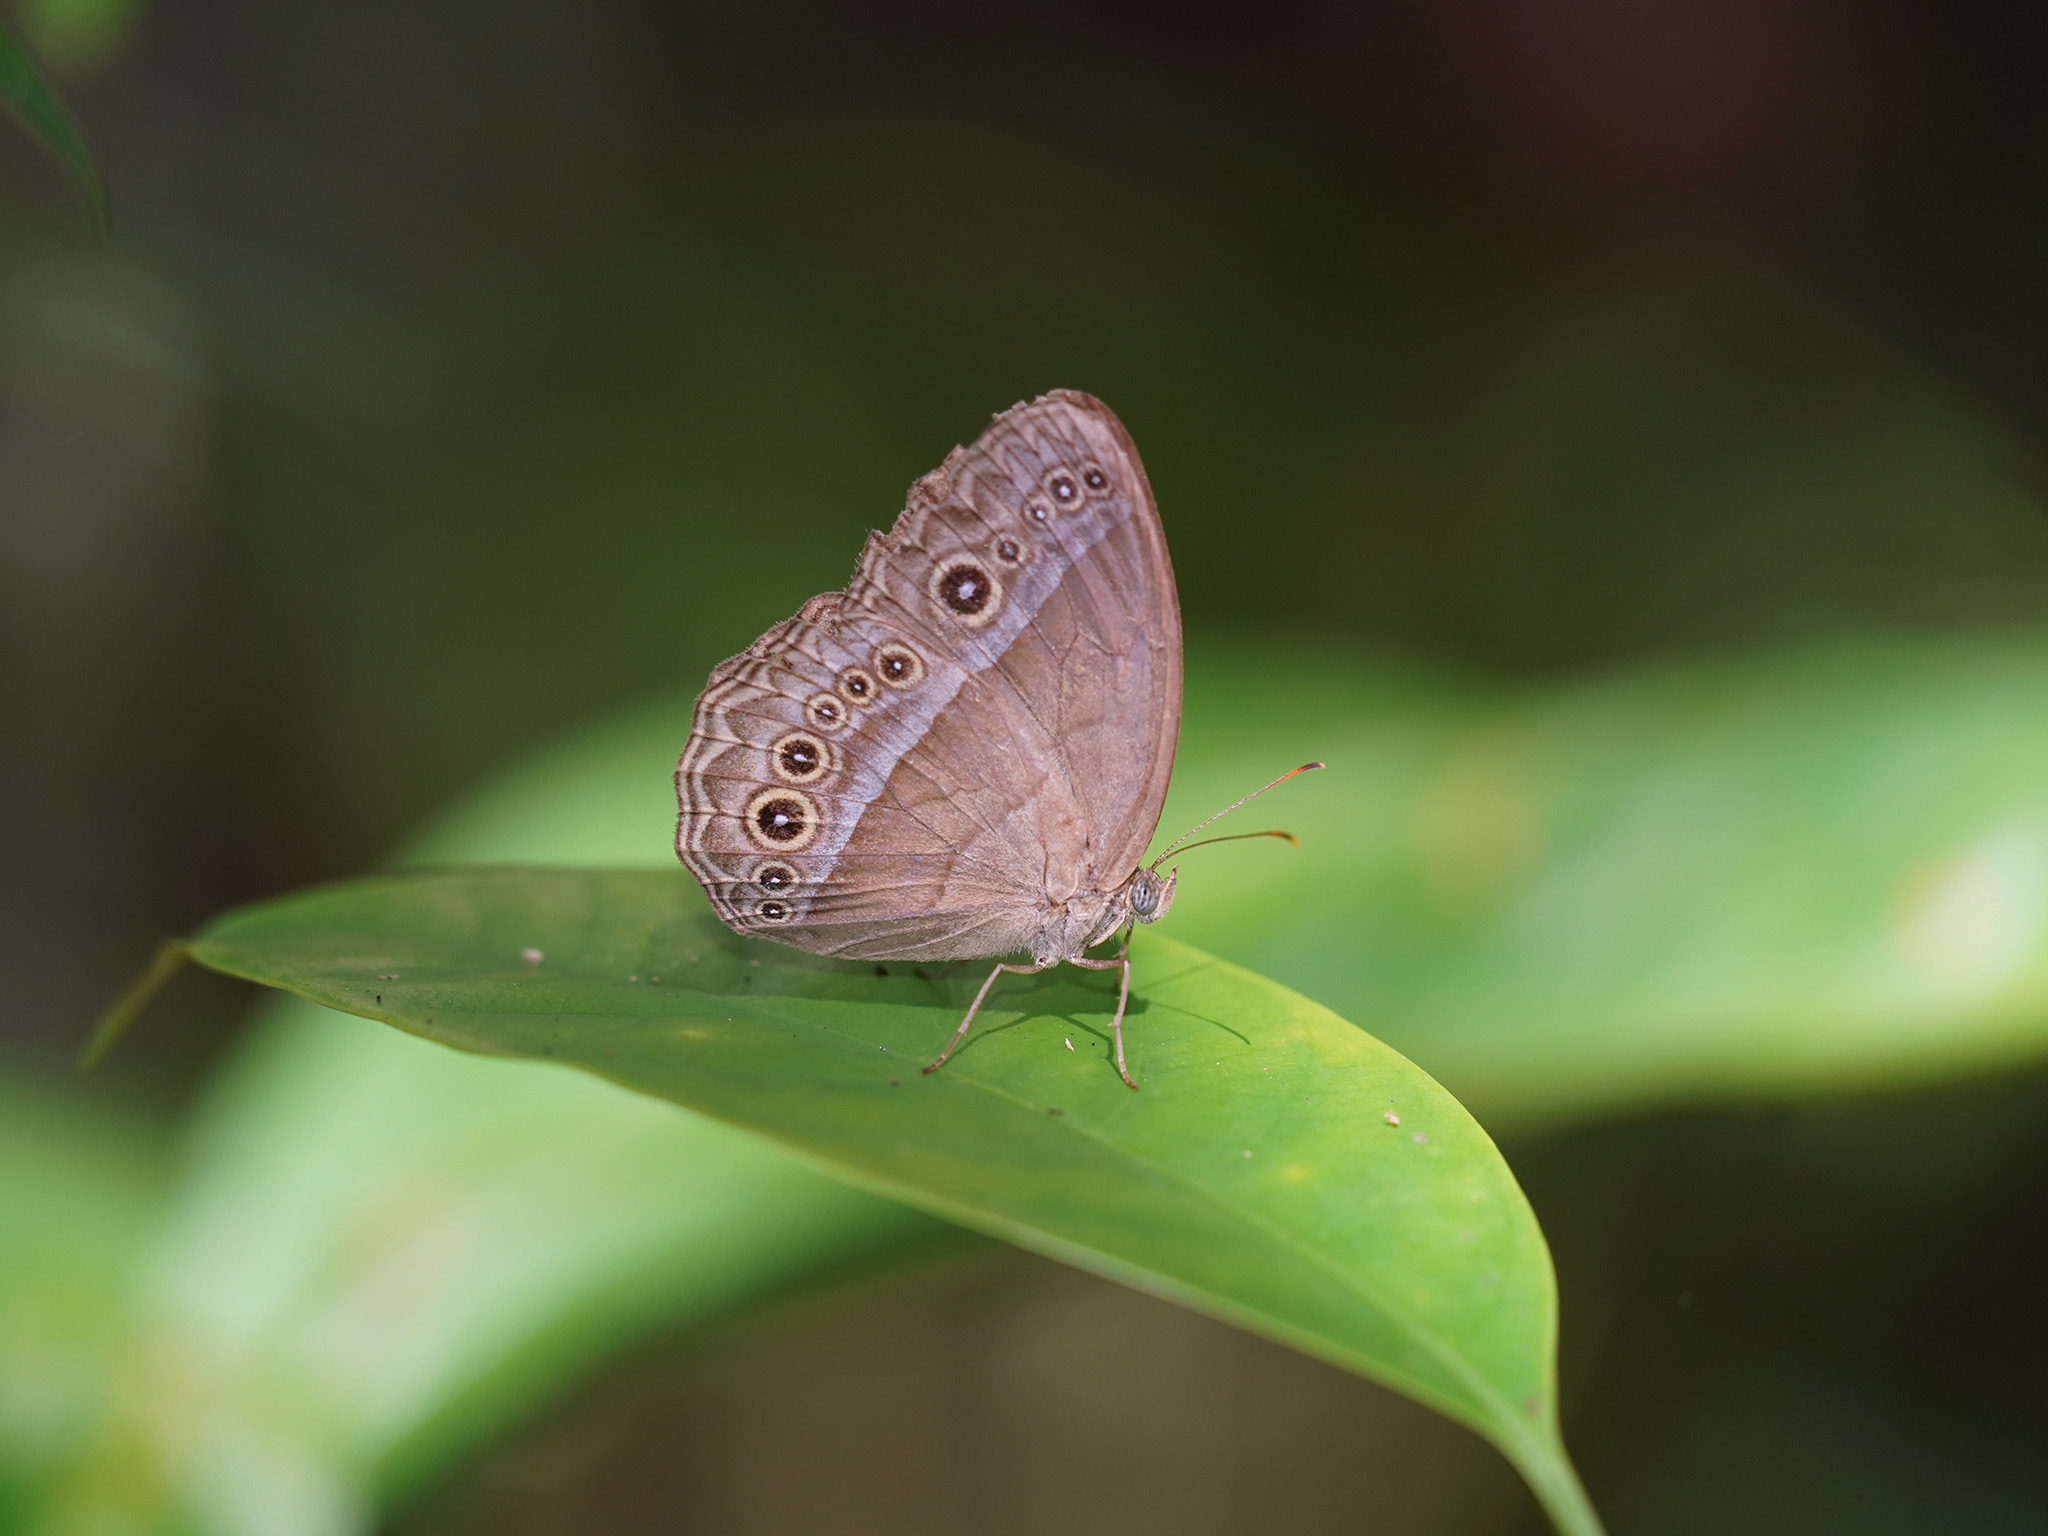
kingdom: Animalia
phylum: Arthropoda
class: Insecta
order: Lepidoptera
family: Nymphalidae
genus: Mycalesis
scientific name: Mycalesis orseis
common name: Purple bushbrown
